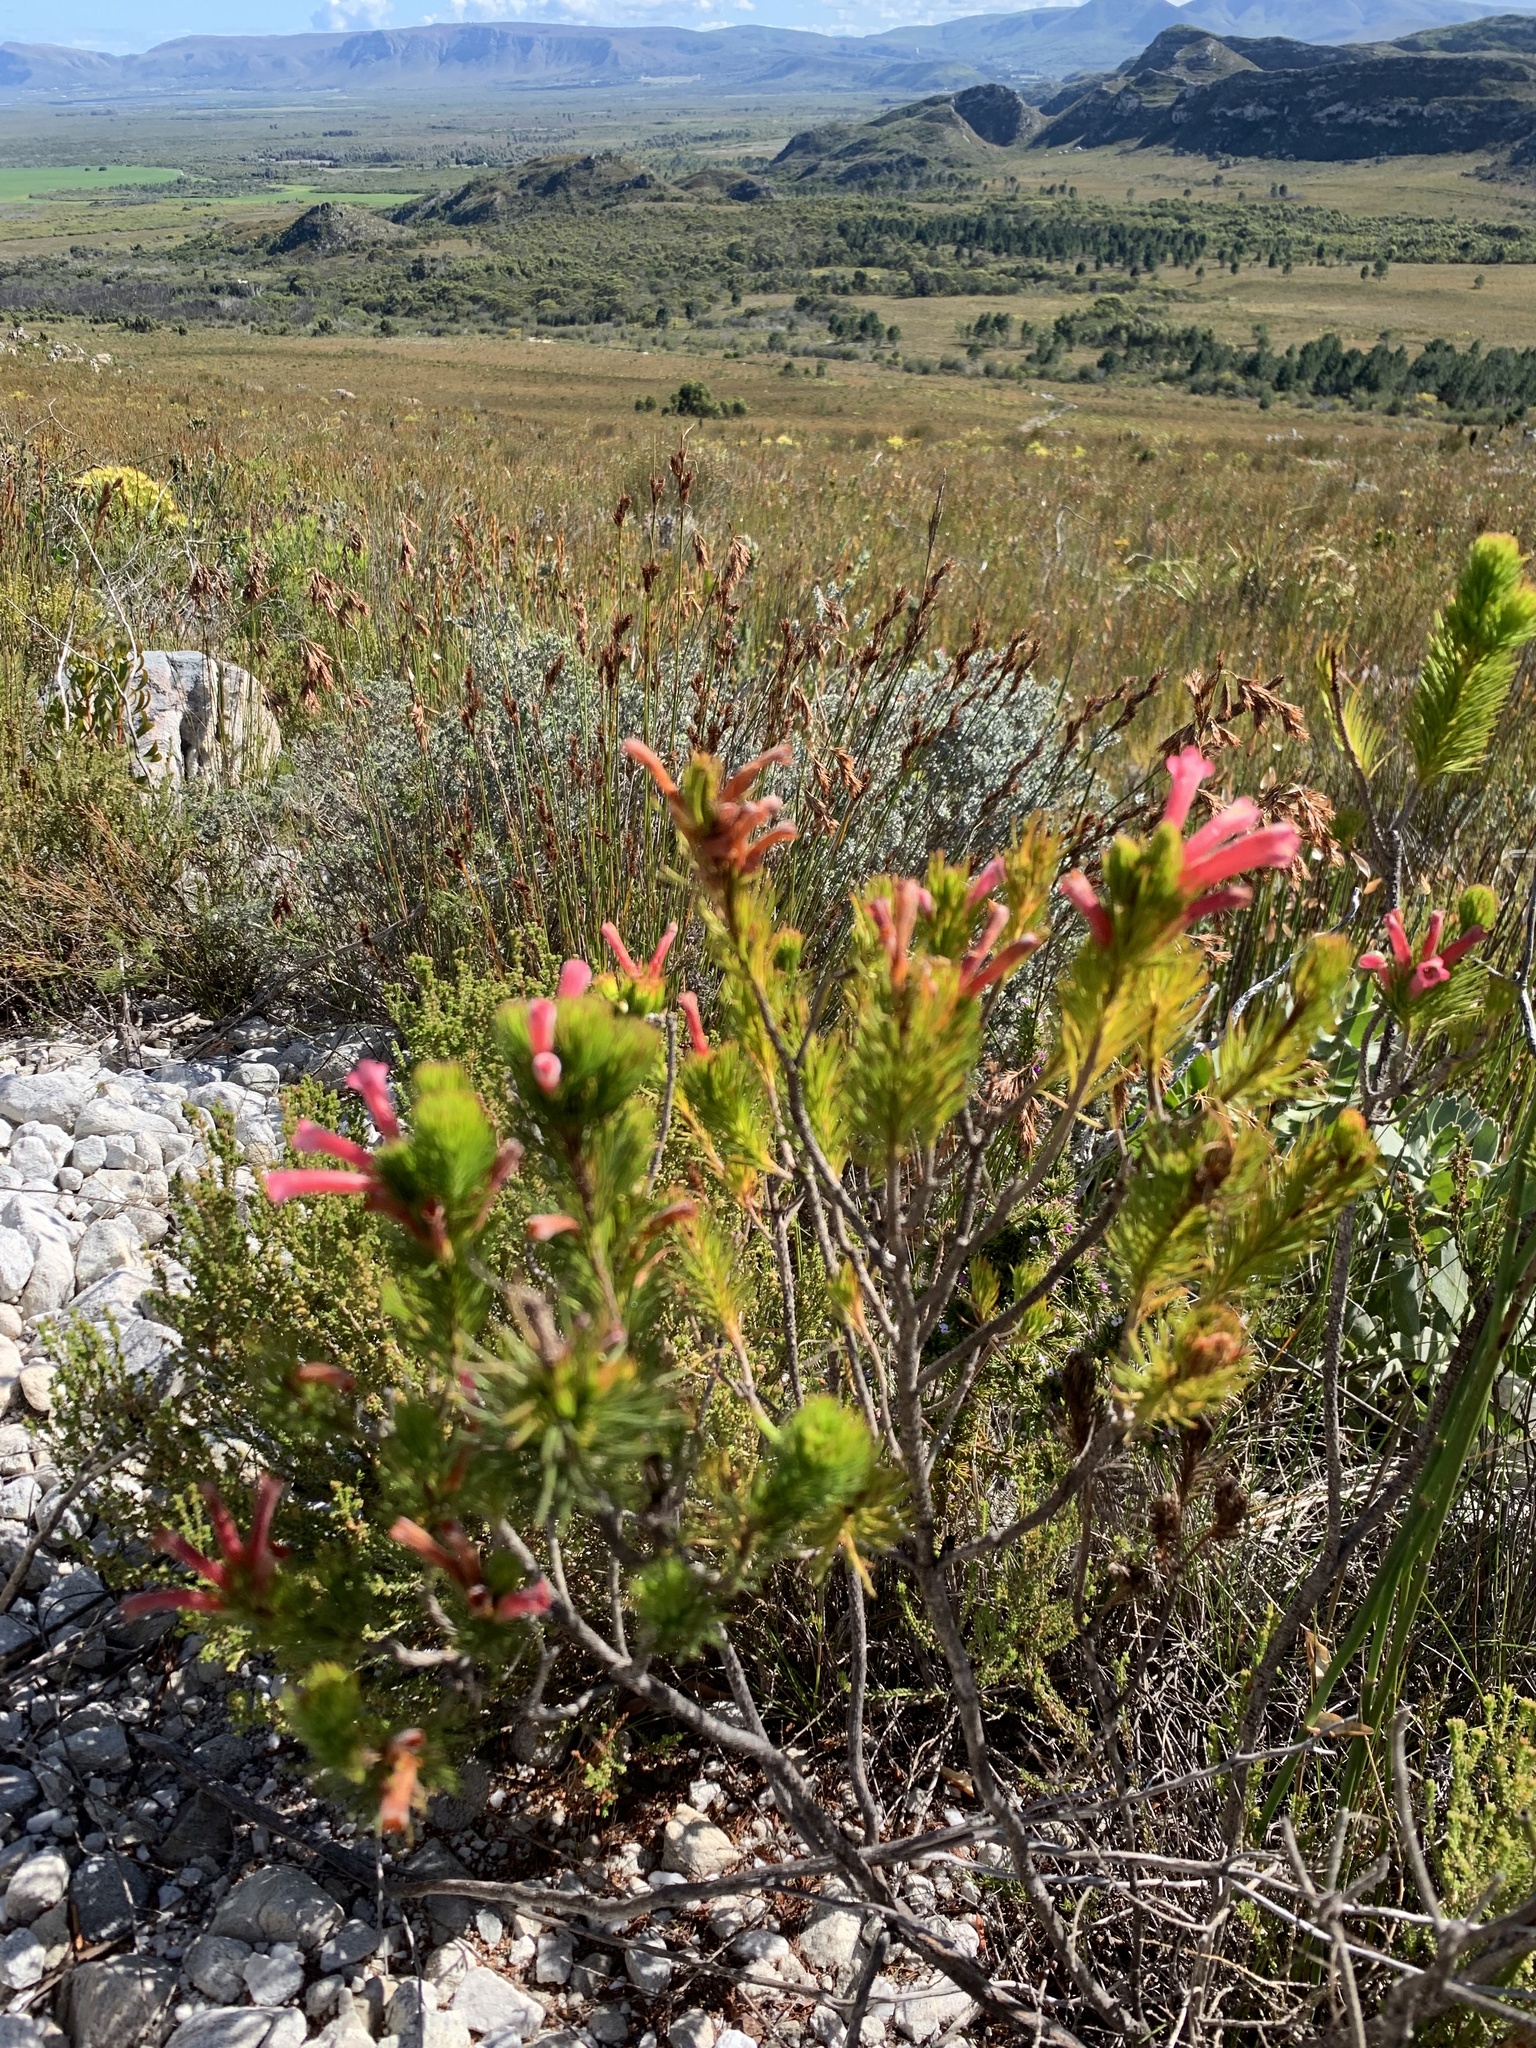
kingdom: Plantae
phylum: Tracheophyta
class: Magnoliopsida
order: Ericales
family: Ericaceae
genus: Erica
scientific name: Erica vestita
